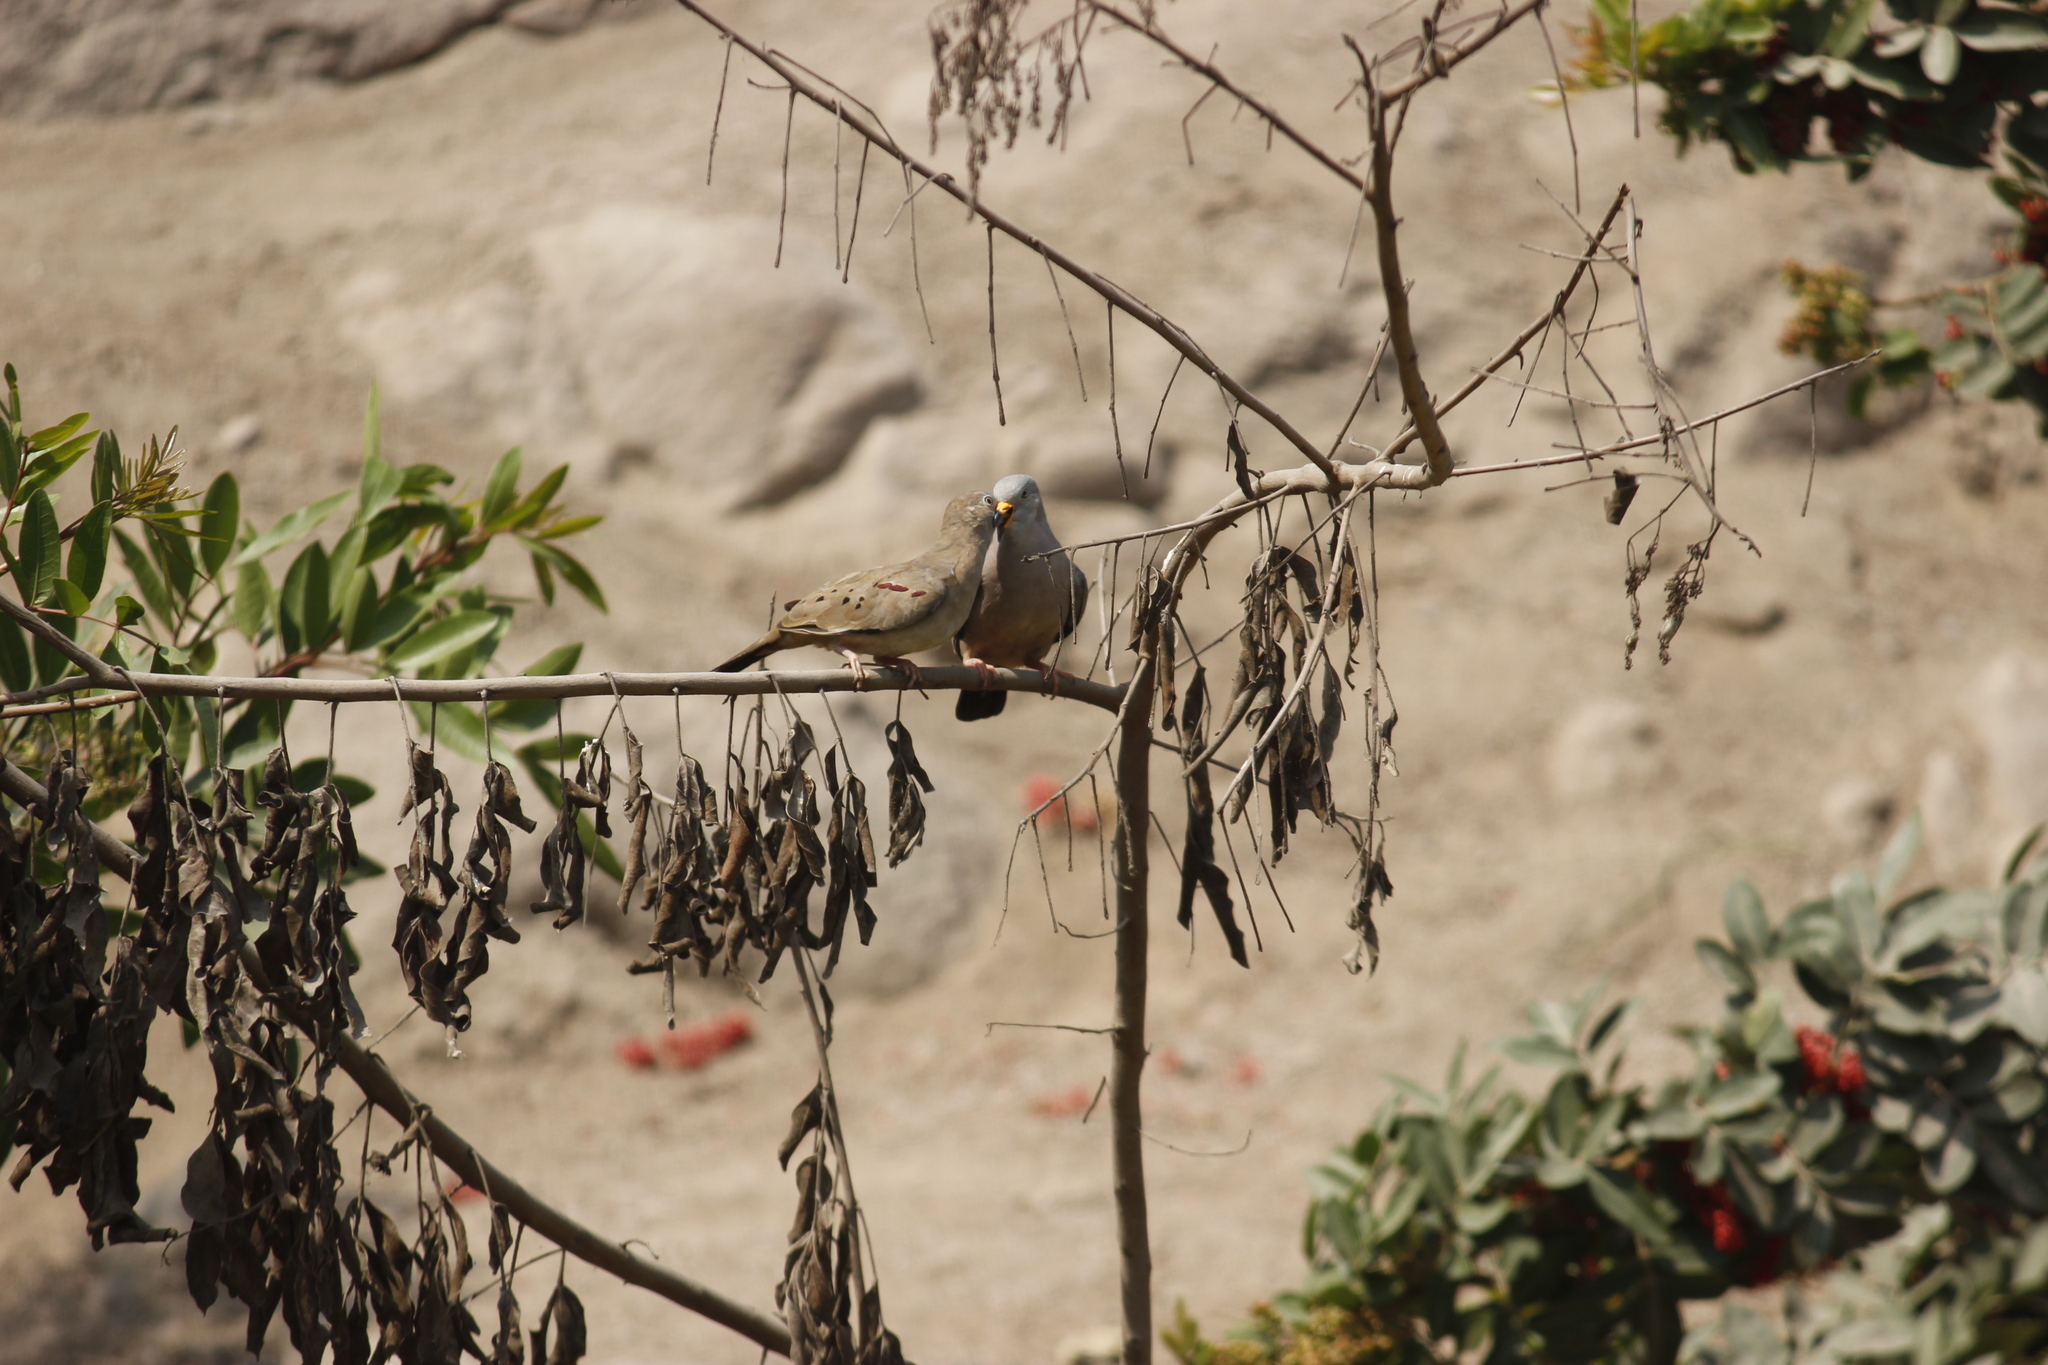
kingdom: Animalia
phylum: Chordata
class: Aves
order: Columbiformes
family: Columbidae
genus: Columbina
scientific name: Columbina cruziana
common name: Croaking ground dove
